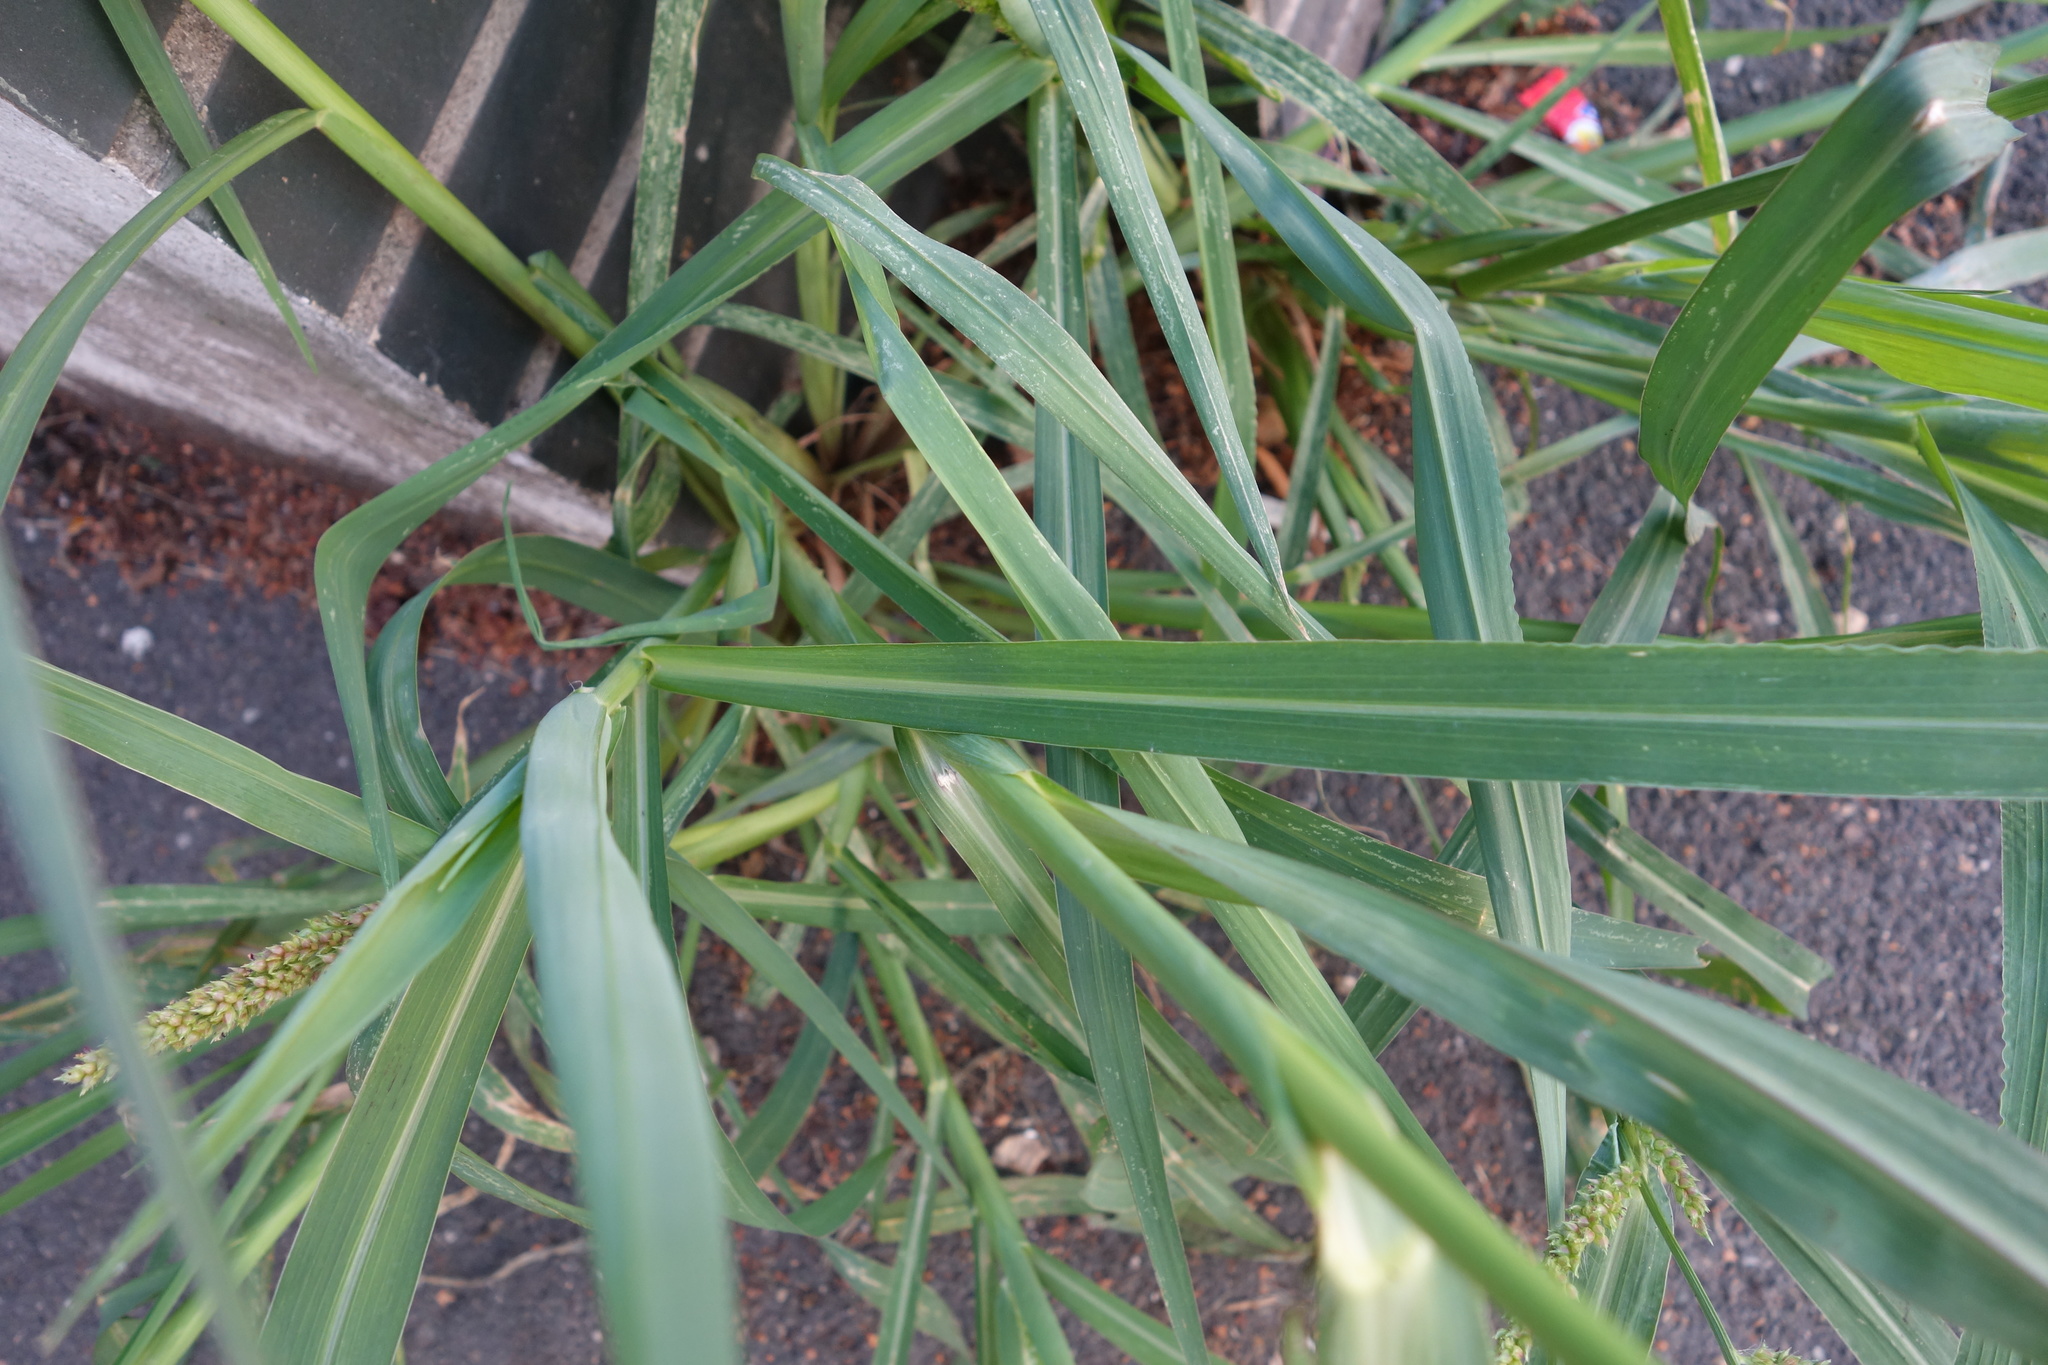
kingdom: Plantae
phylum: Tracheophyta
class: Liliopsida
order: Poales
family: Poaceae
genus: Echinochloa
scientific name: Echinochloa crus-galli
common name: Cockspur
